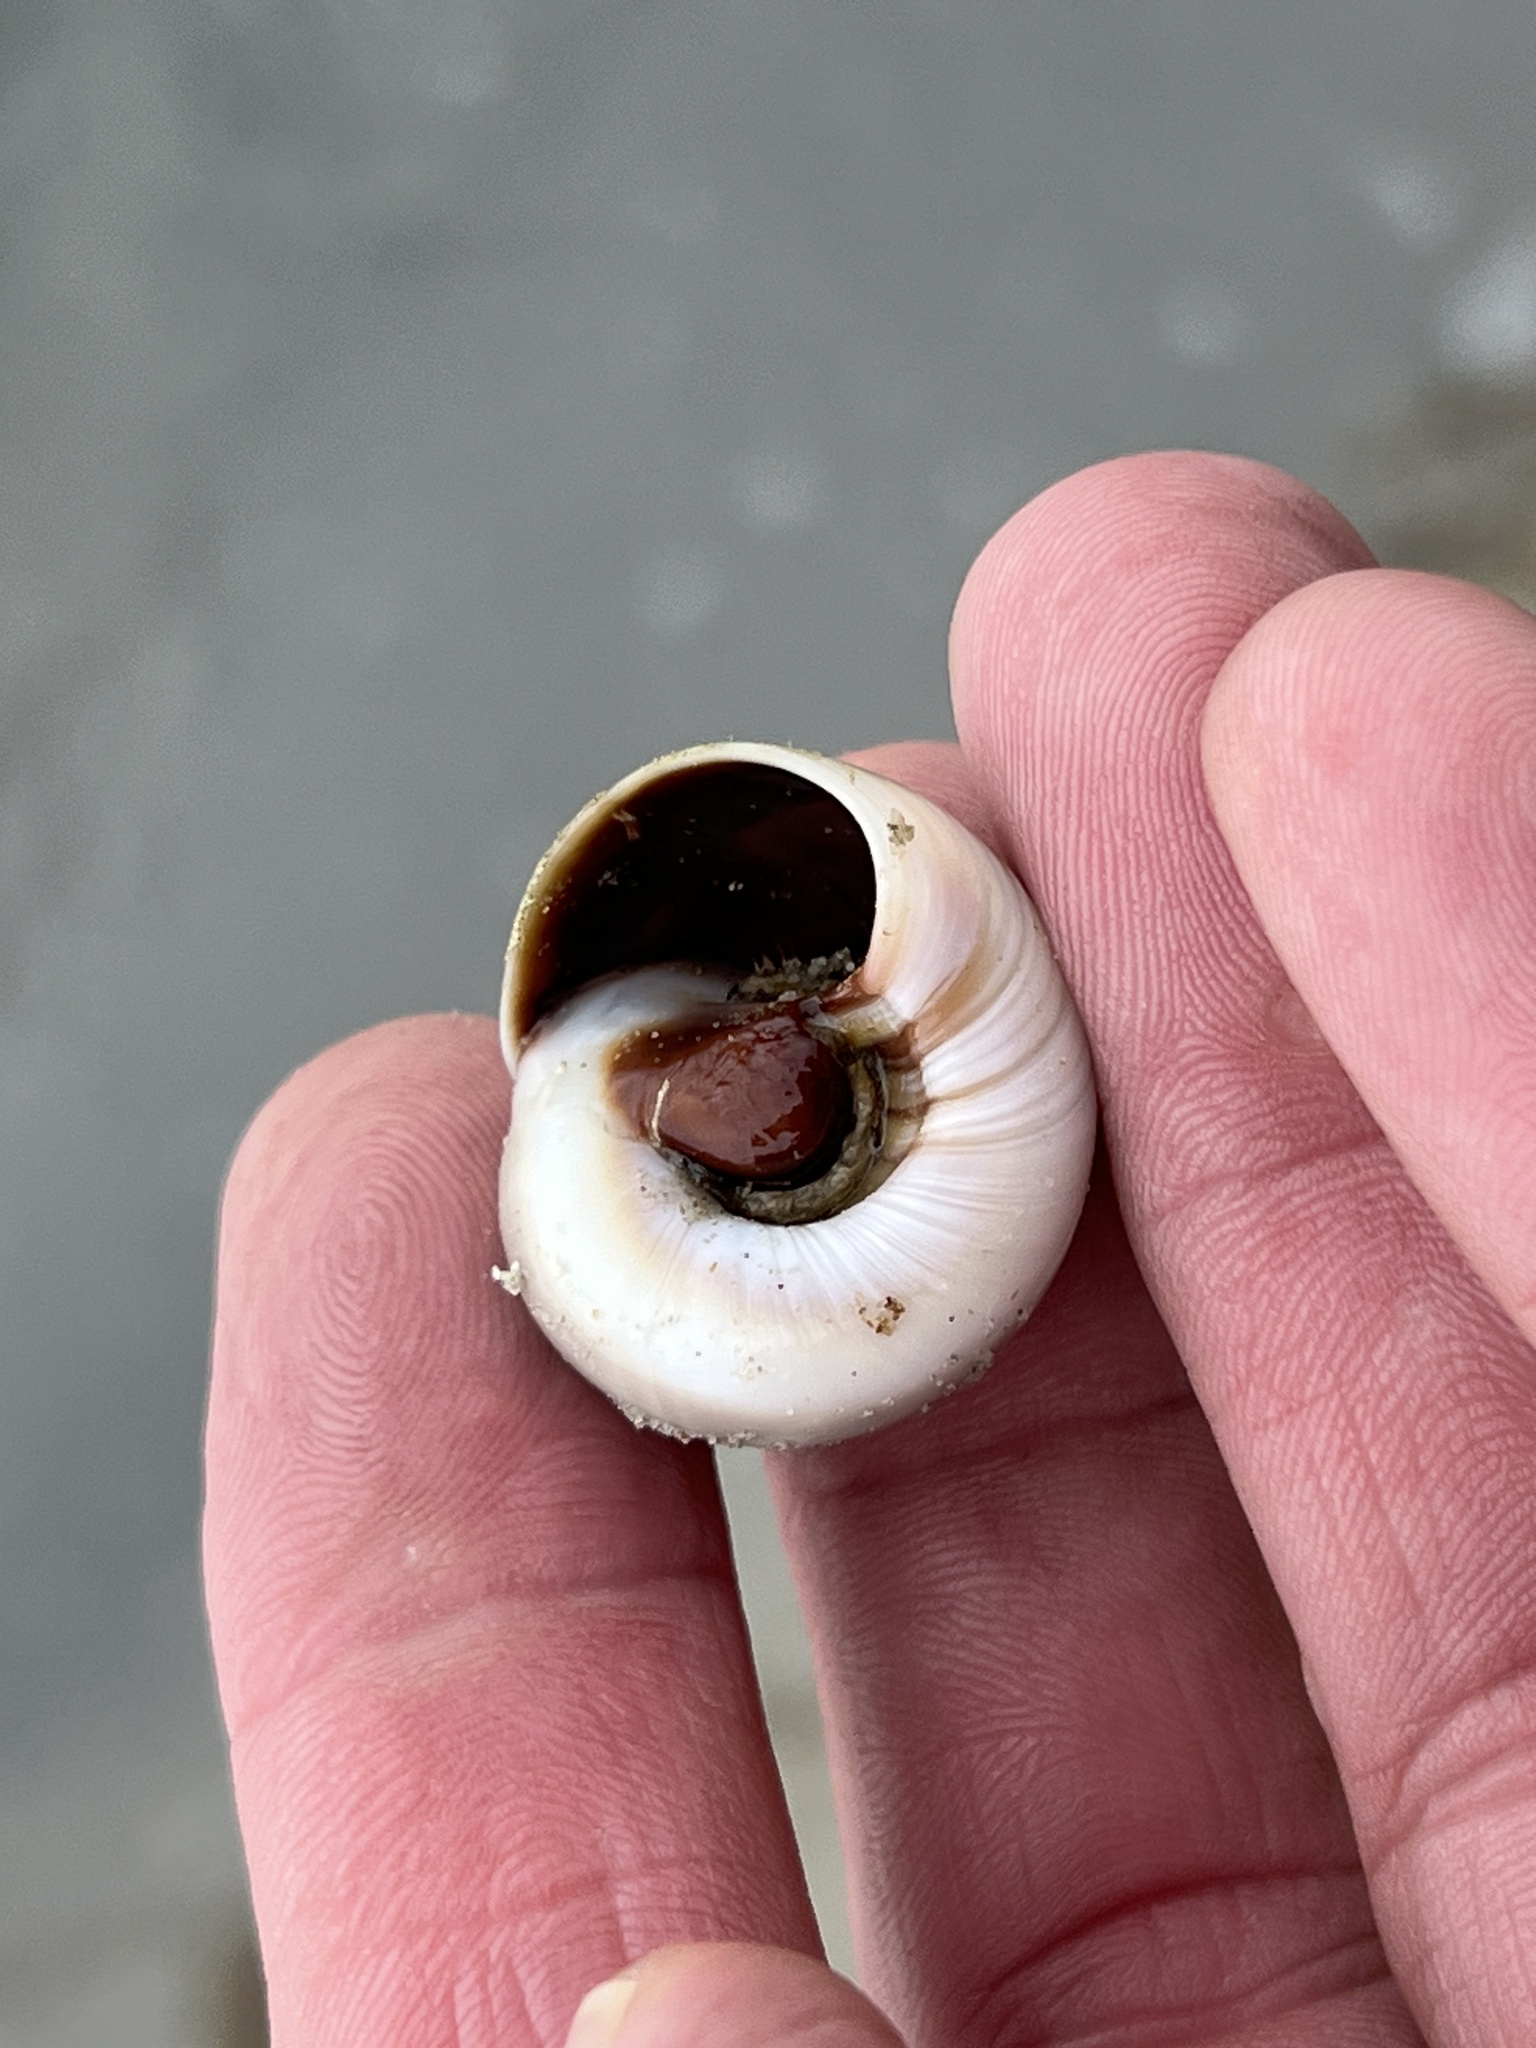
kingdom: Animalia
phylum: Mollusca
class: Gastropoda
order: Littorinimorpha
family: Naticidae
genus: Neverita
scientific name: Neverita delessertiana
